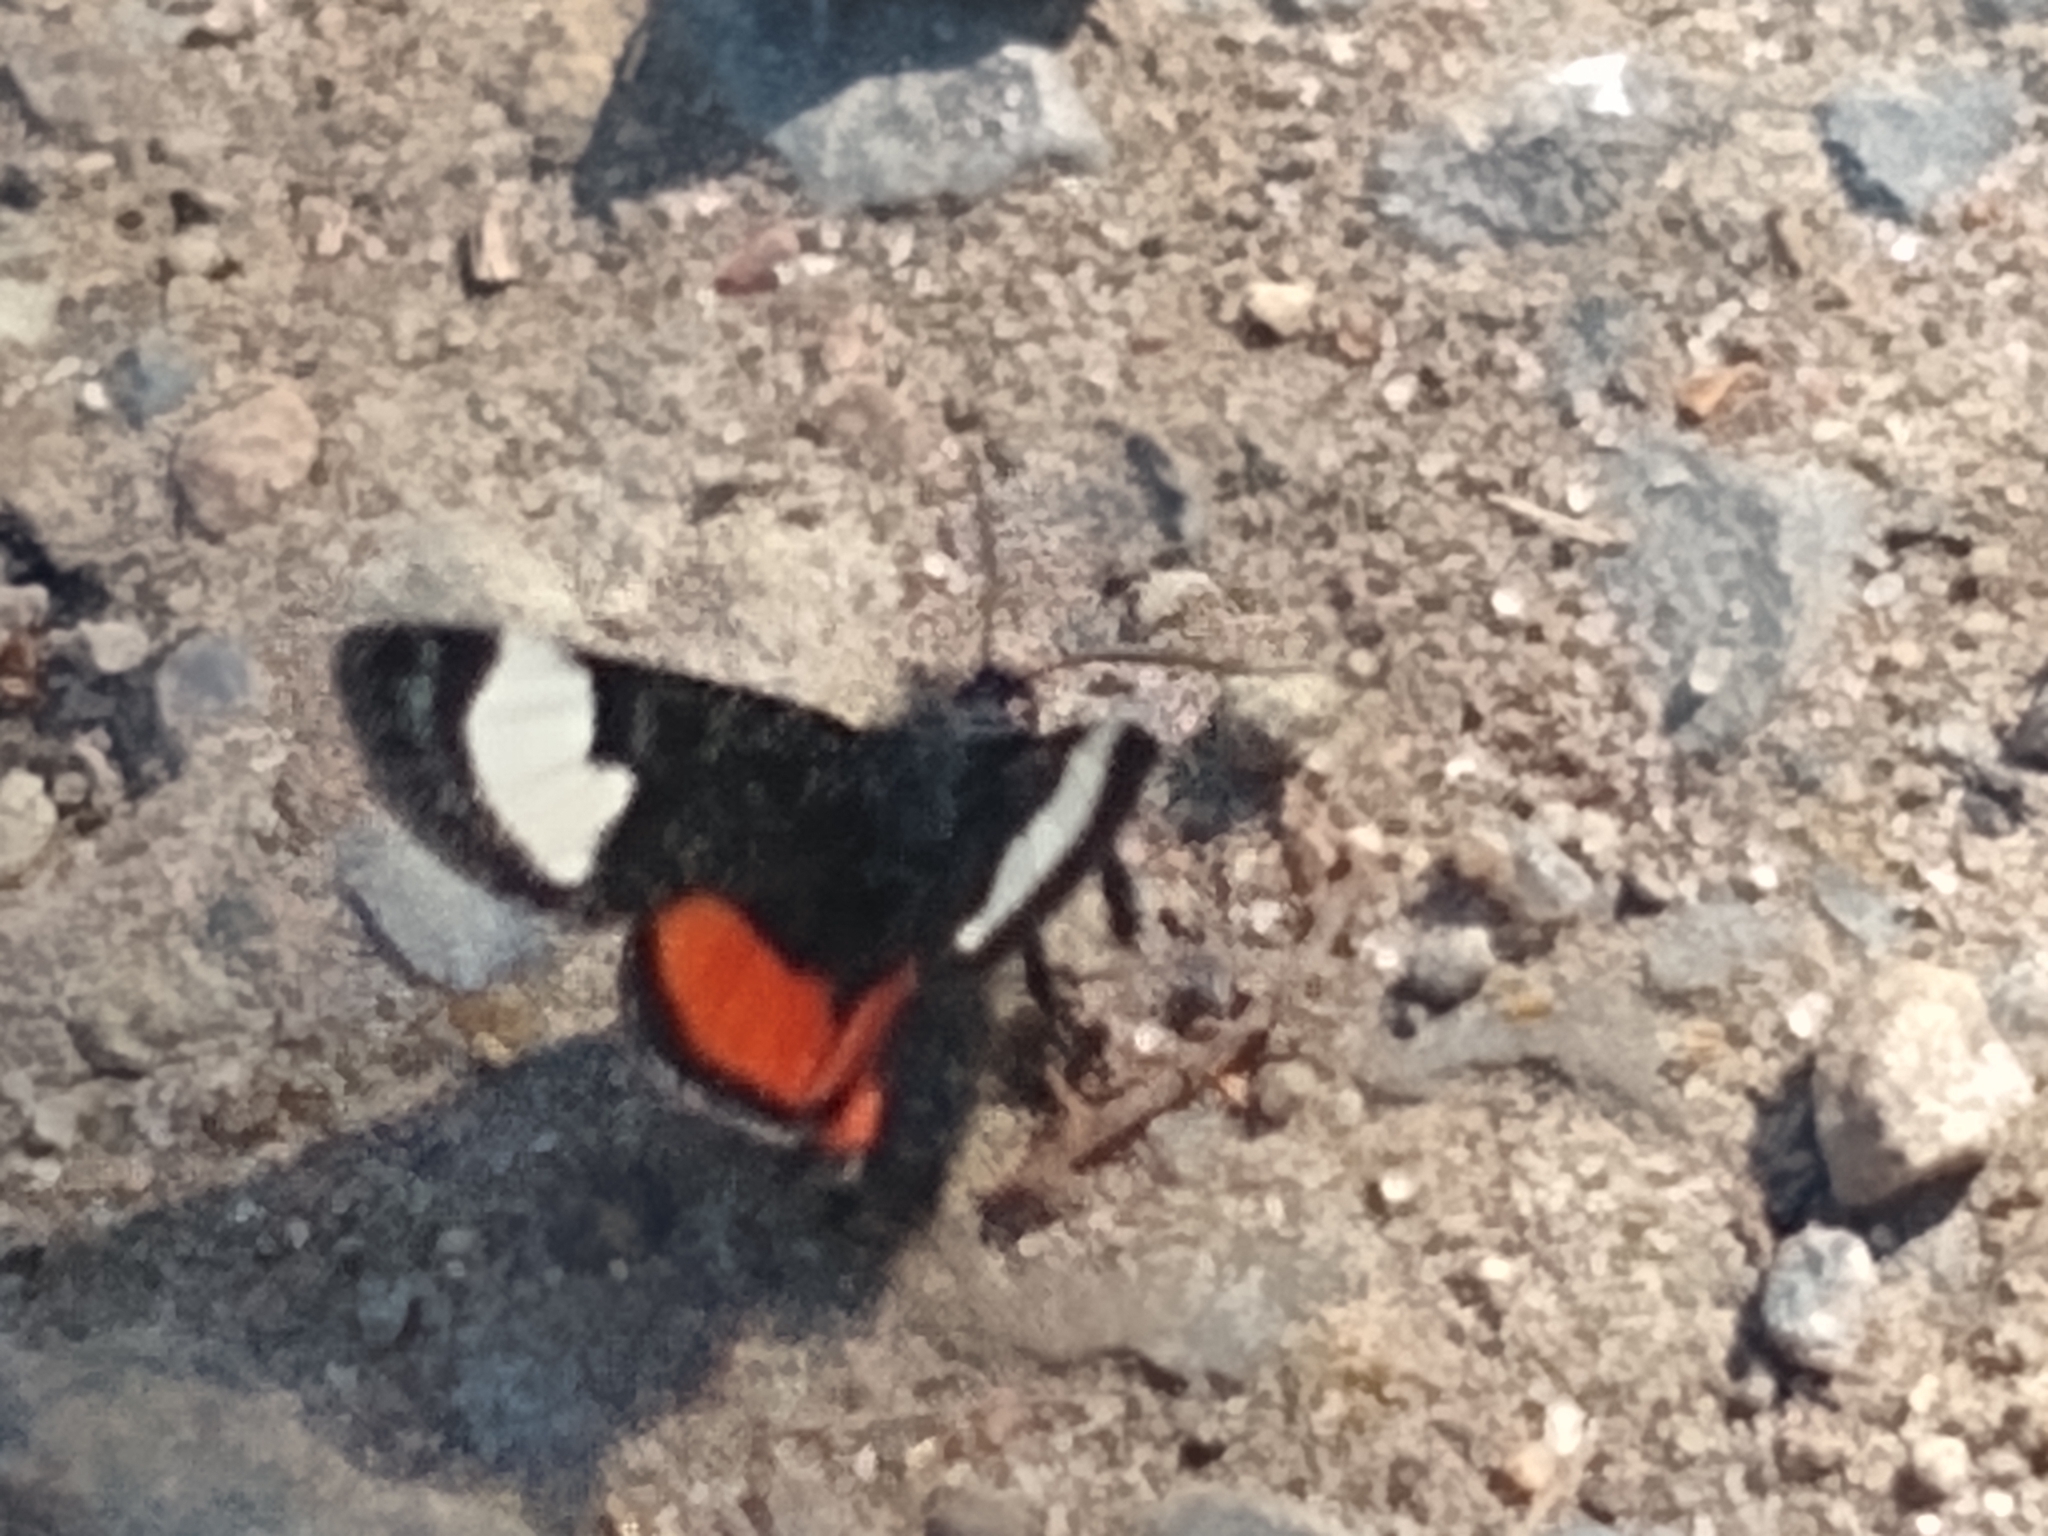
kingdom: Animalia
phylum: Arthropoda
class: Insecta
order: Lepidoptera
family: Noctuidae
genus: Psychomorpha
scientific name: Psychomorpha epimenis
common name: Grapevine epimenis moth
